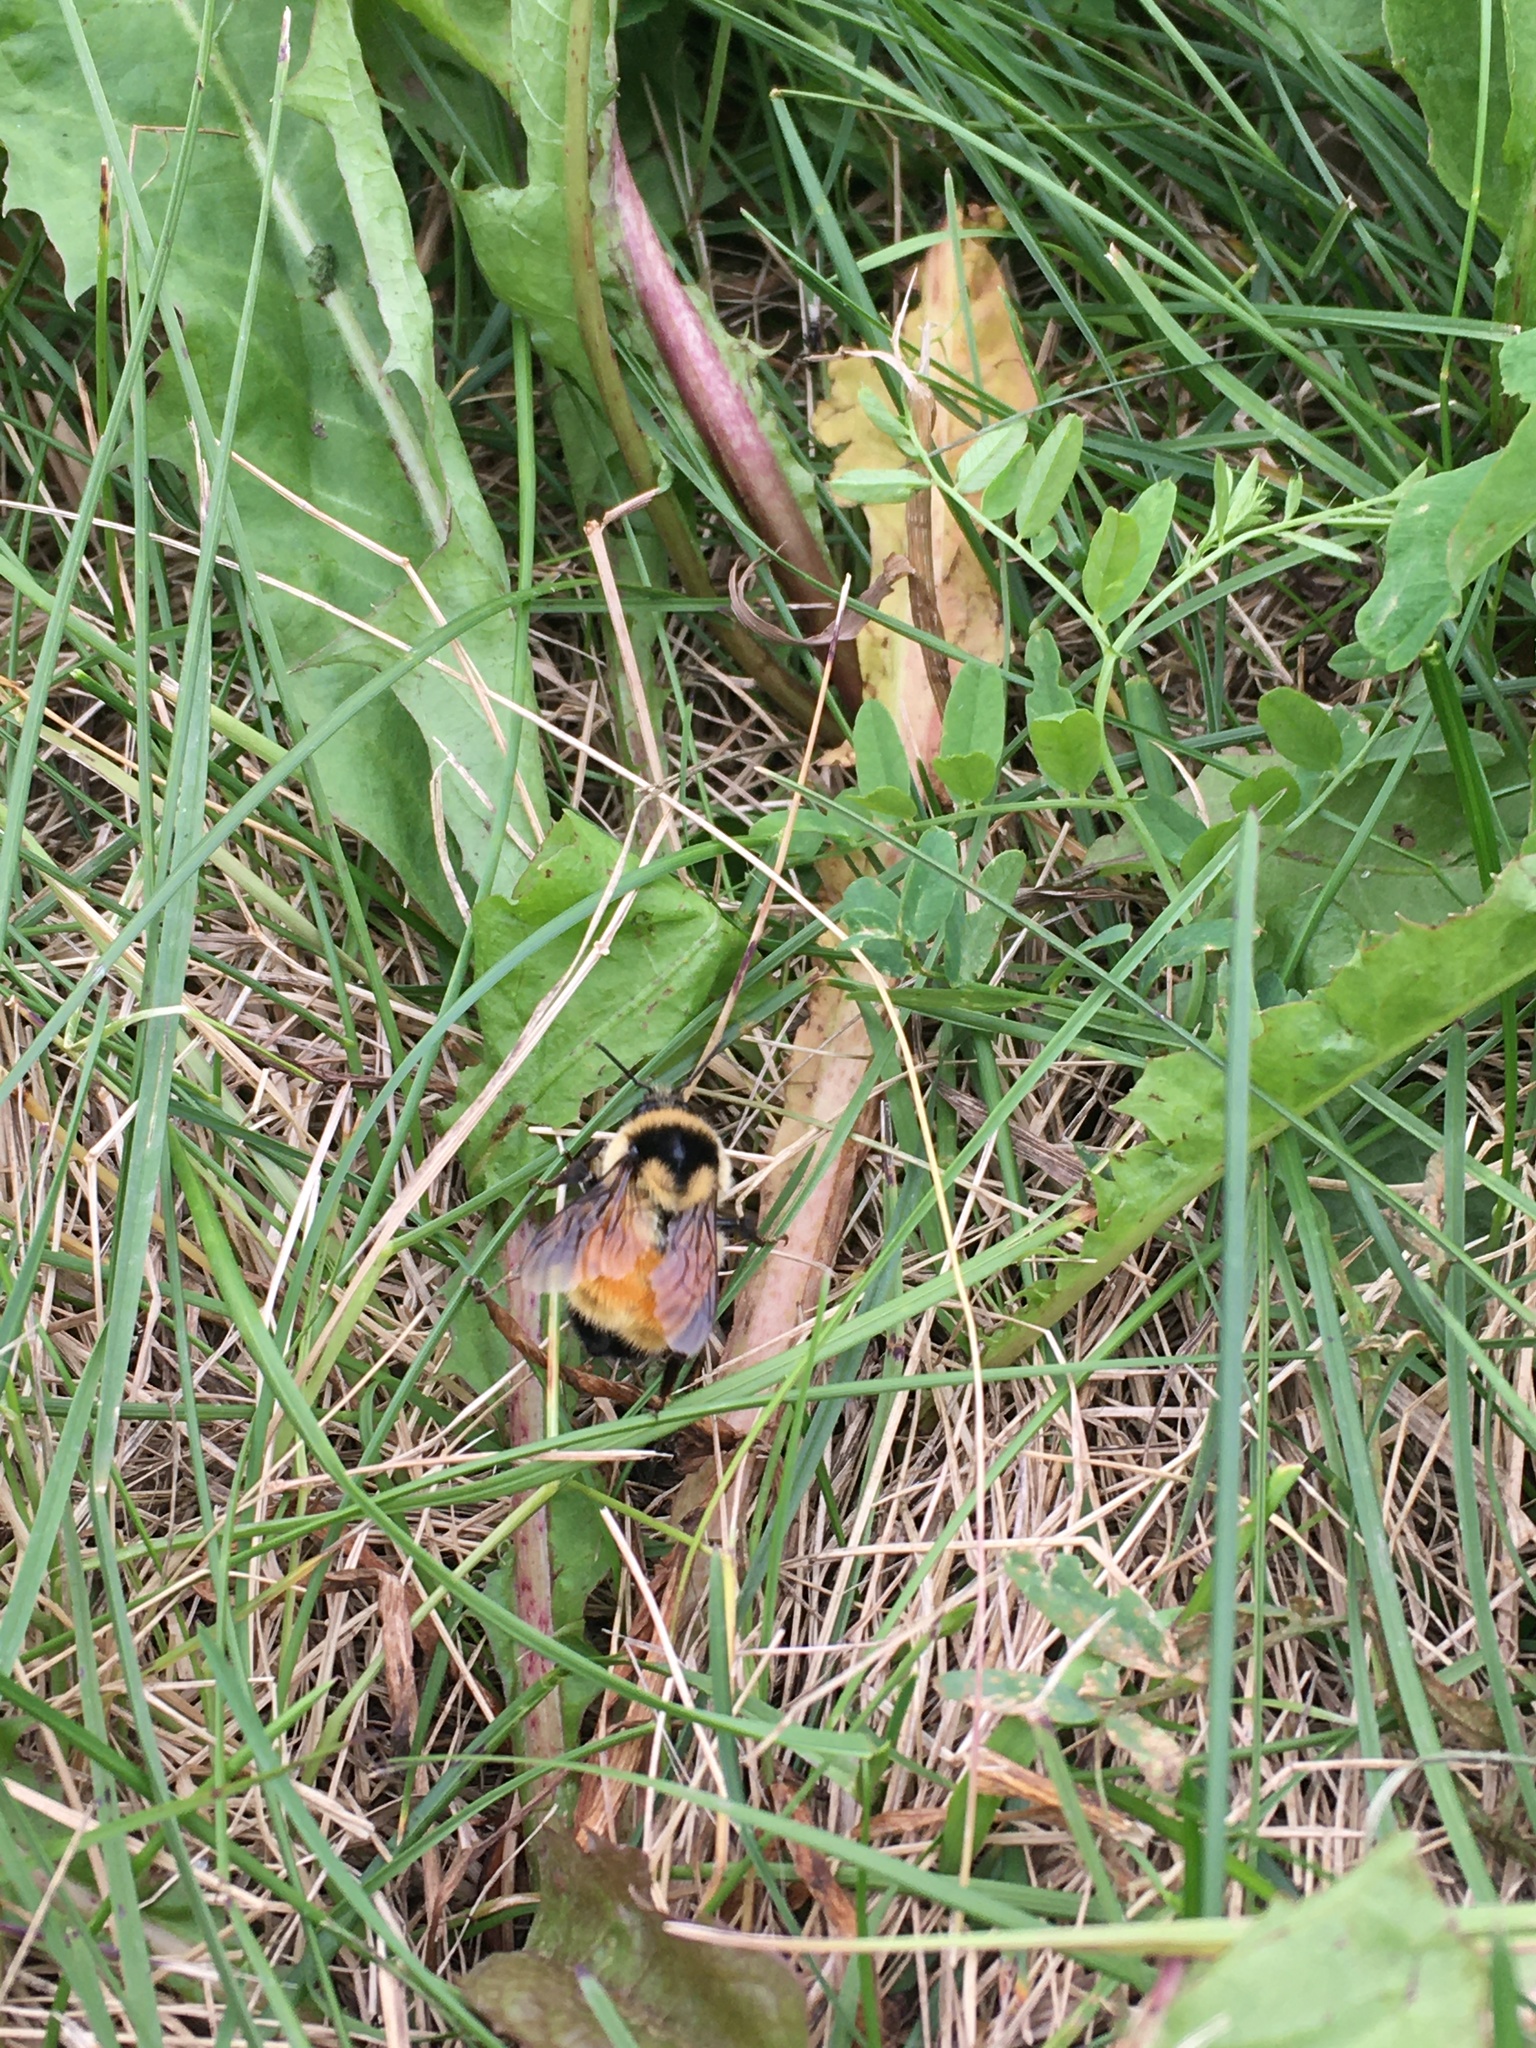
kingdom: Animalia
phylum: Arthropoda
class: Insecta
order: Hymenoptera
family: Apidae
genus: Bombus
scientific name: Bombus ternarius
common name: Tri-colored bumble bee
